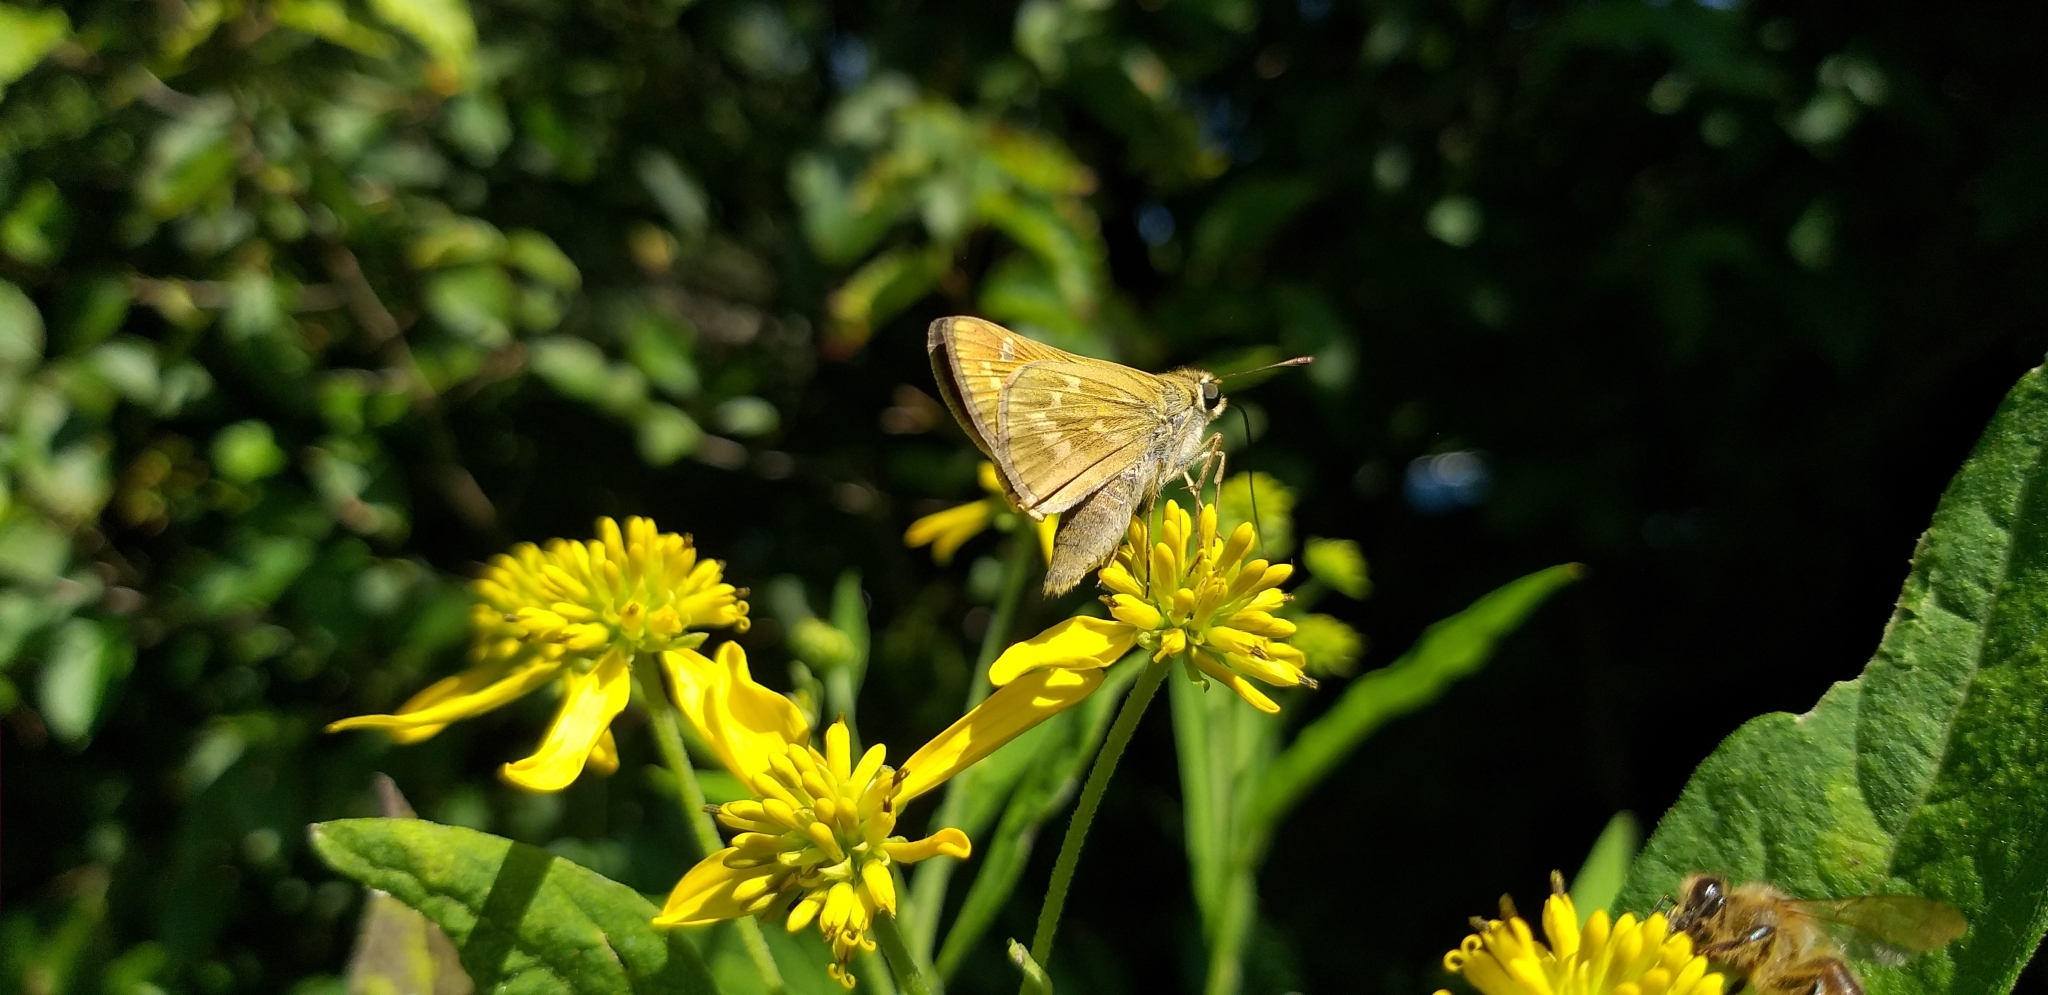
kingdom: Animalia
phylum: Arthropoda
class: Insecta
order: Lepidoptera
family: Hesperiidae
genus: Atalopedes
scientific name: Atalopedes
